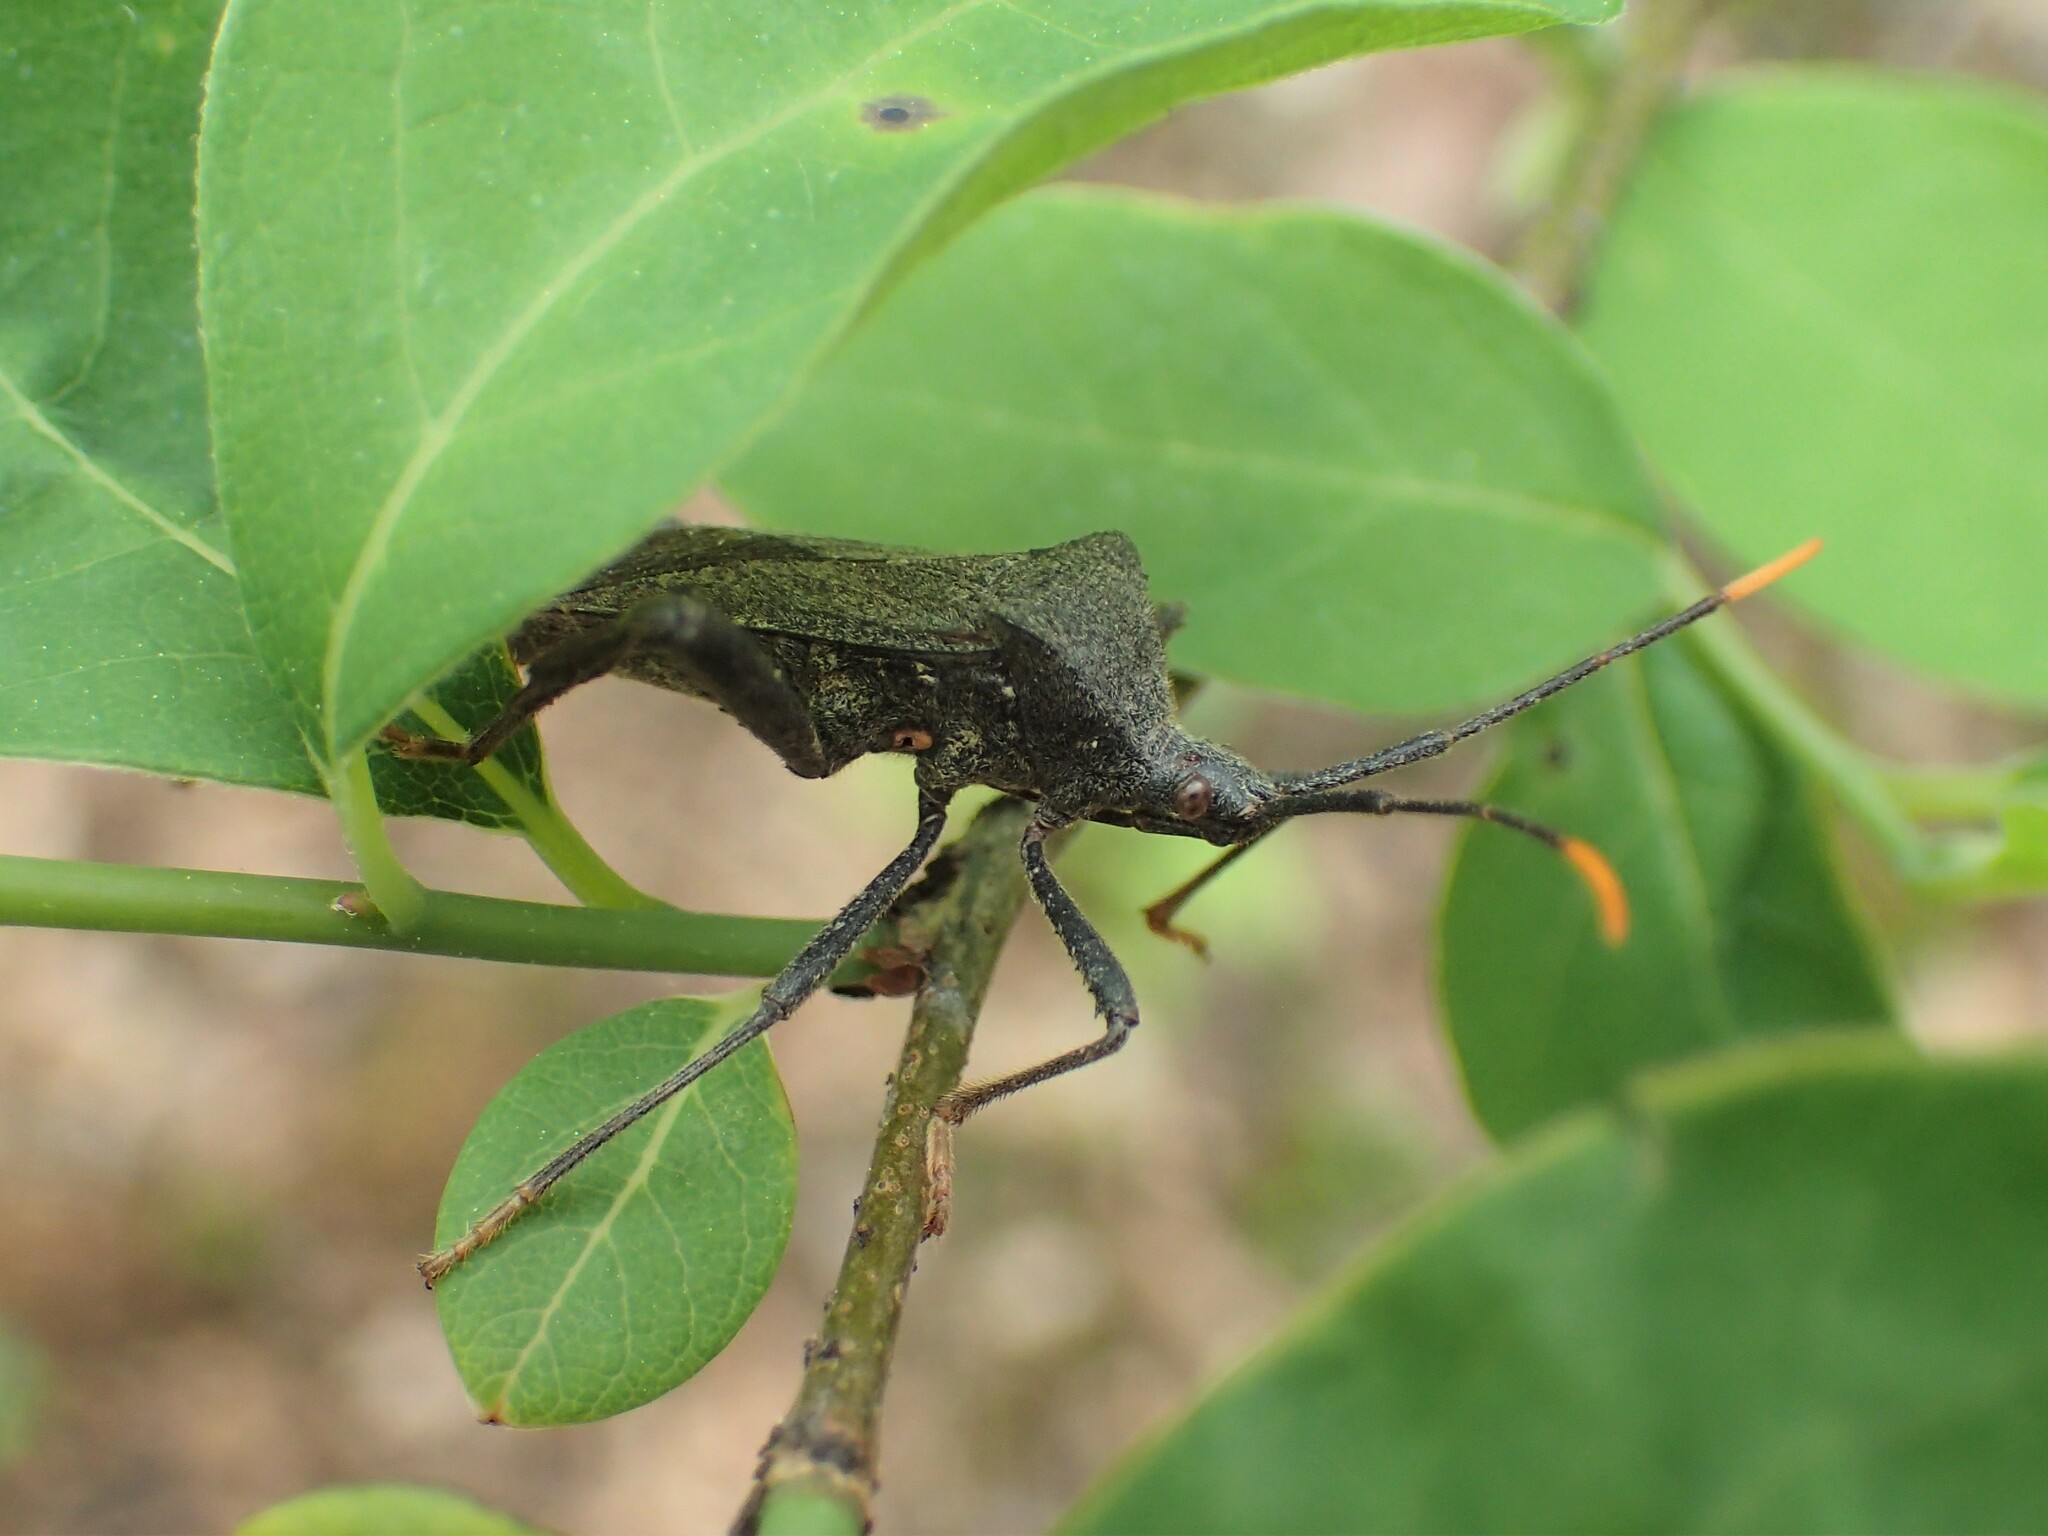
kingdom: Animalia
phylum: Arthropoda
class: Insecta
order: Hemiptera
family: Coreidae
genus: Acanthocephala
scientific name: Acanthocephala terminalis
